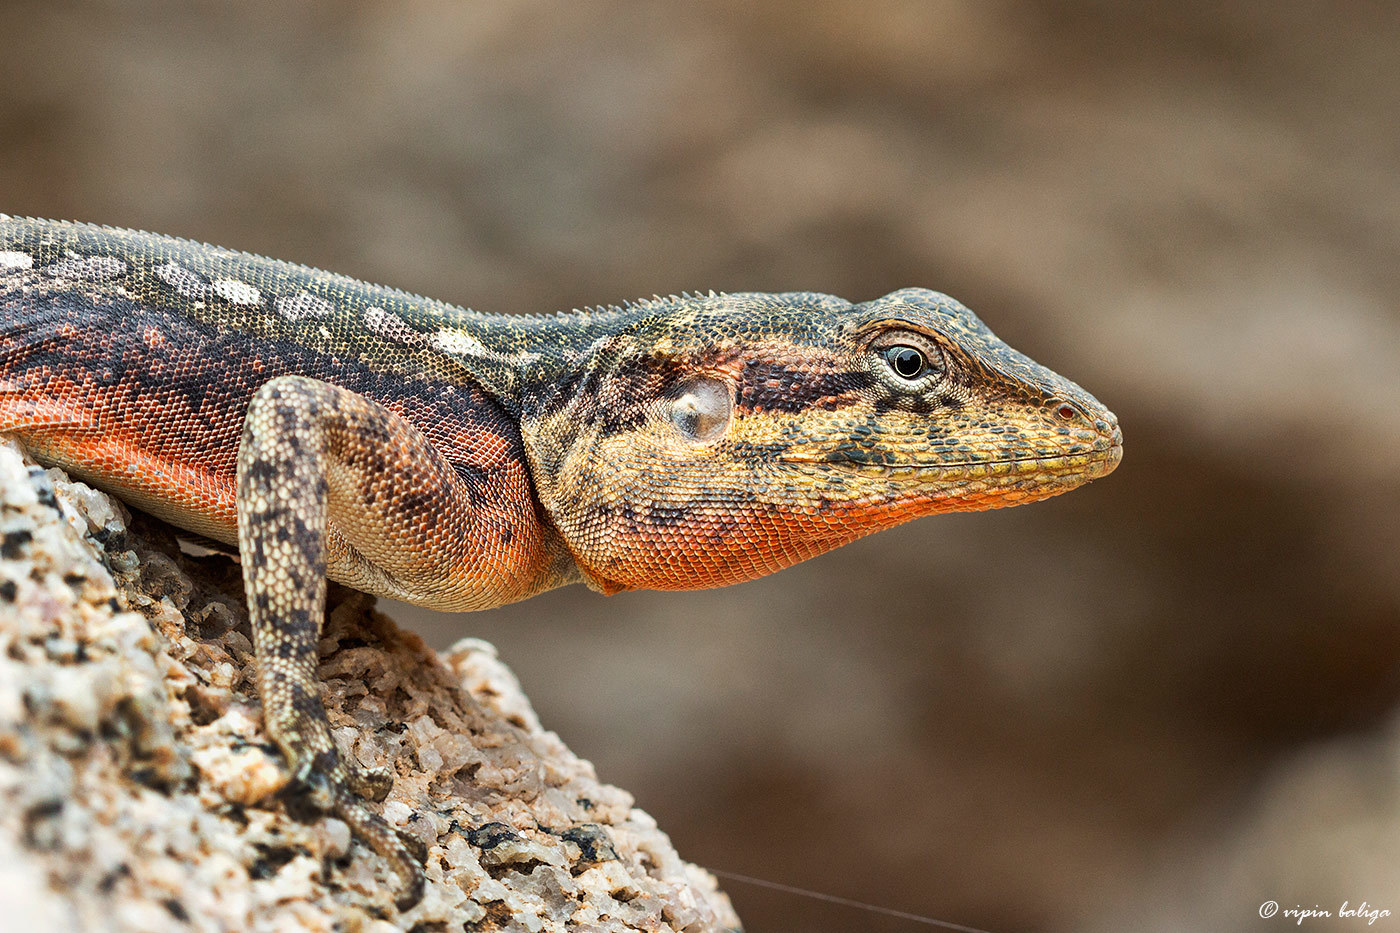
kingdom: Animalia
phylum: Chordata
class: Squamata
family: Agamidae
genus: Psammophilus
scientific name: Psammophilus dorsalis
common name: South indian rock agama
